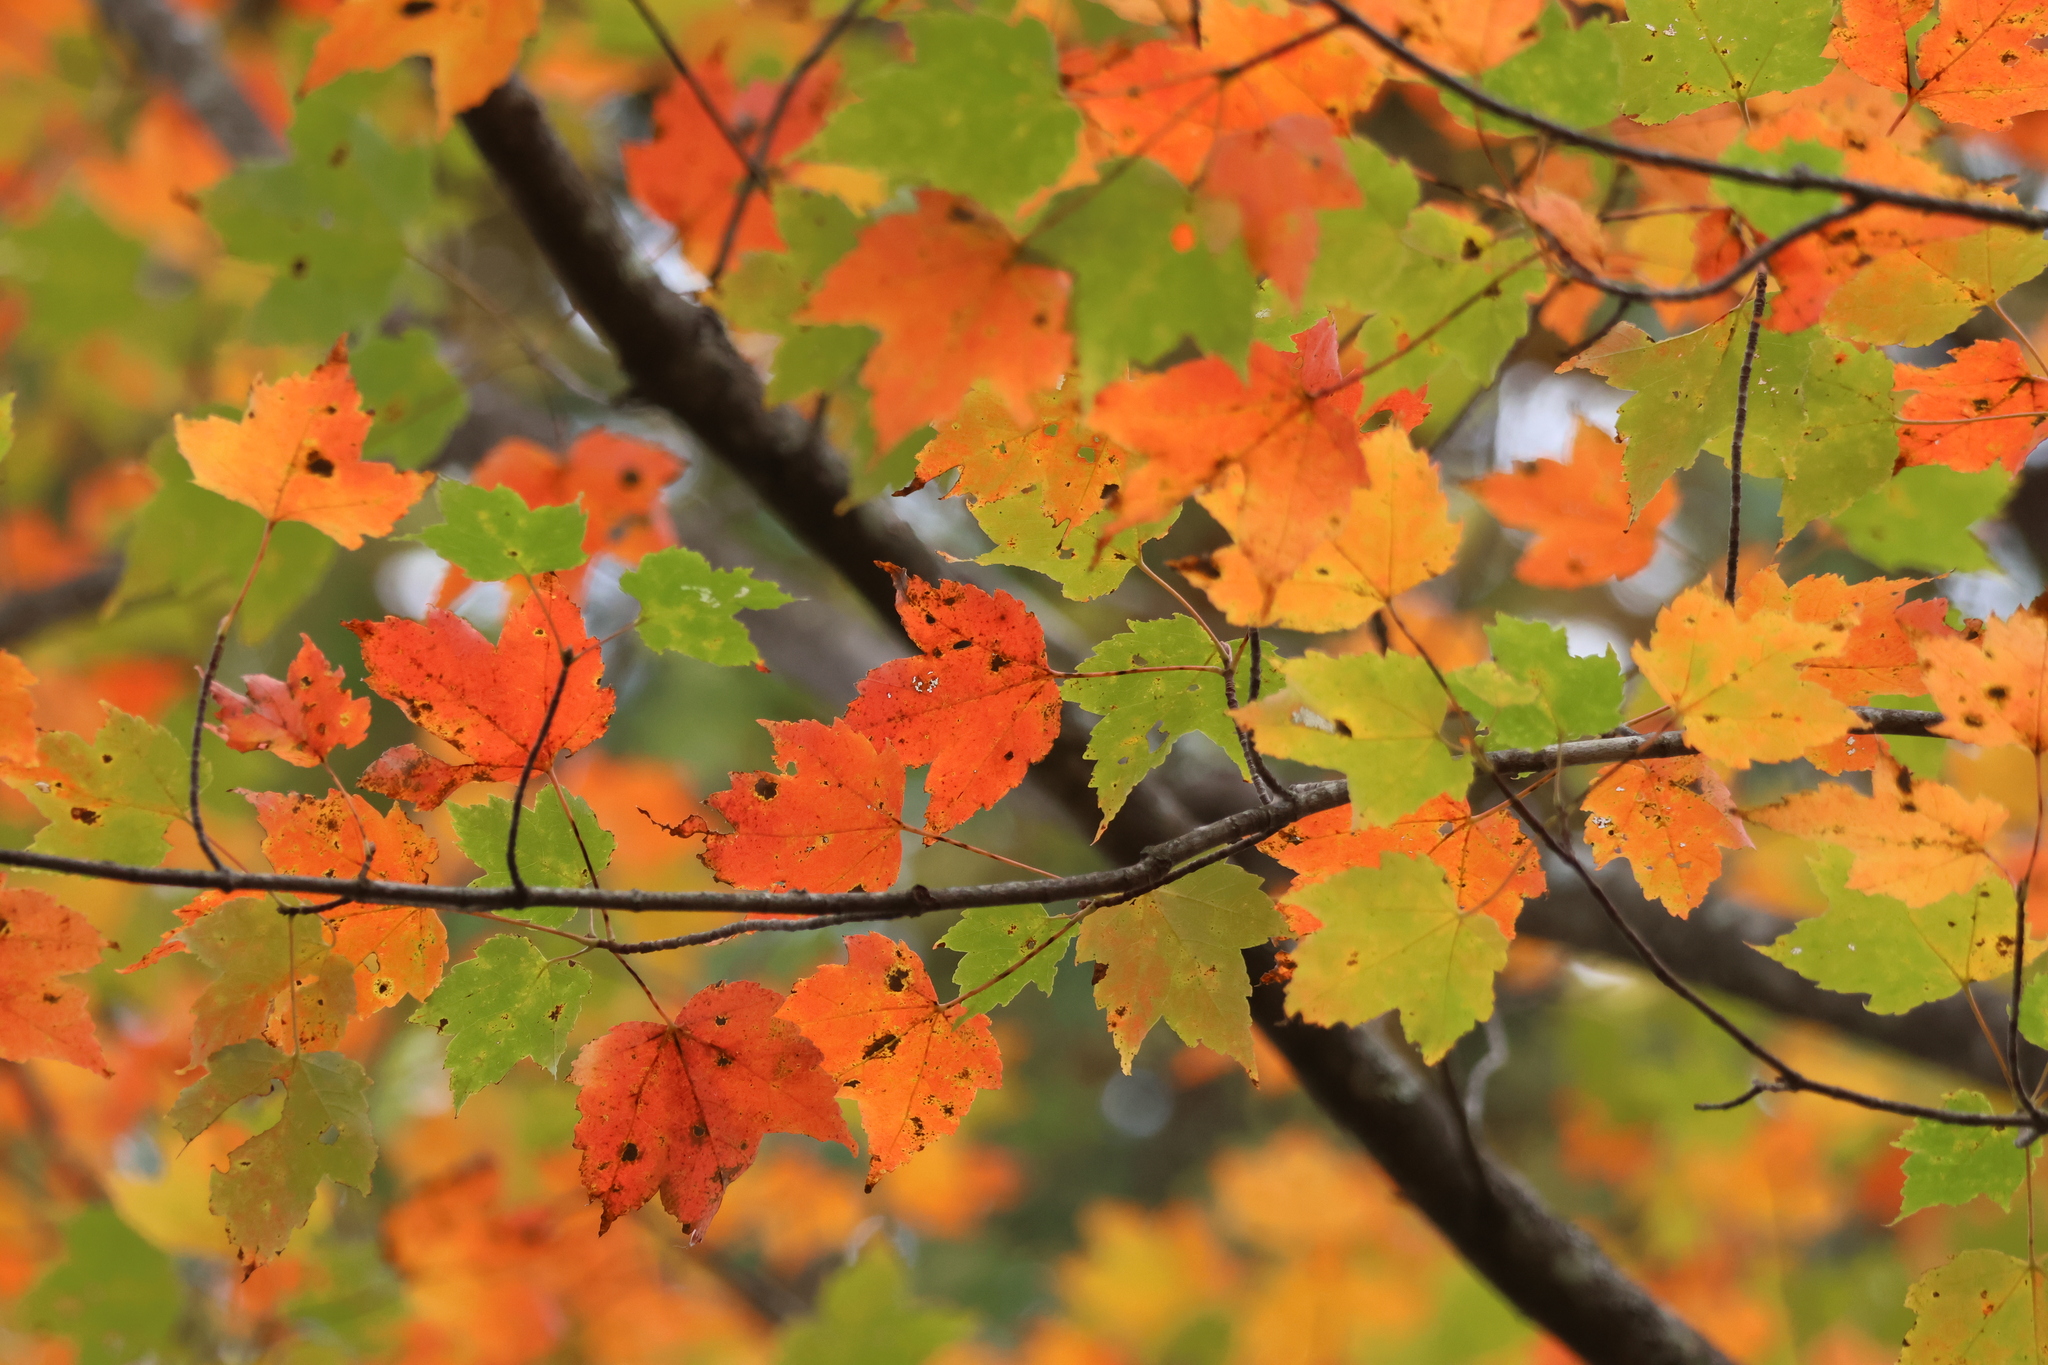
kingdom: Plantae
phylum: Tracheophyta
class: Magnoliopsida
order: Sapindales
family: Sapindaceae
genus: Acer
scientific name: Acer rubrum
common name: Red maple
